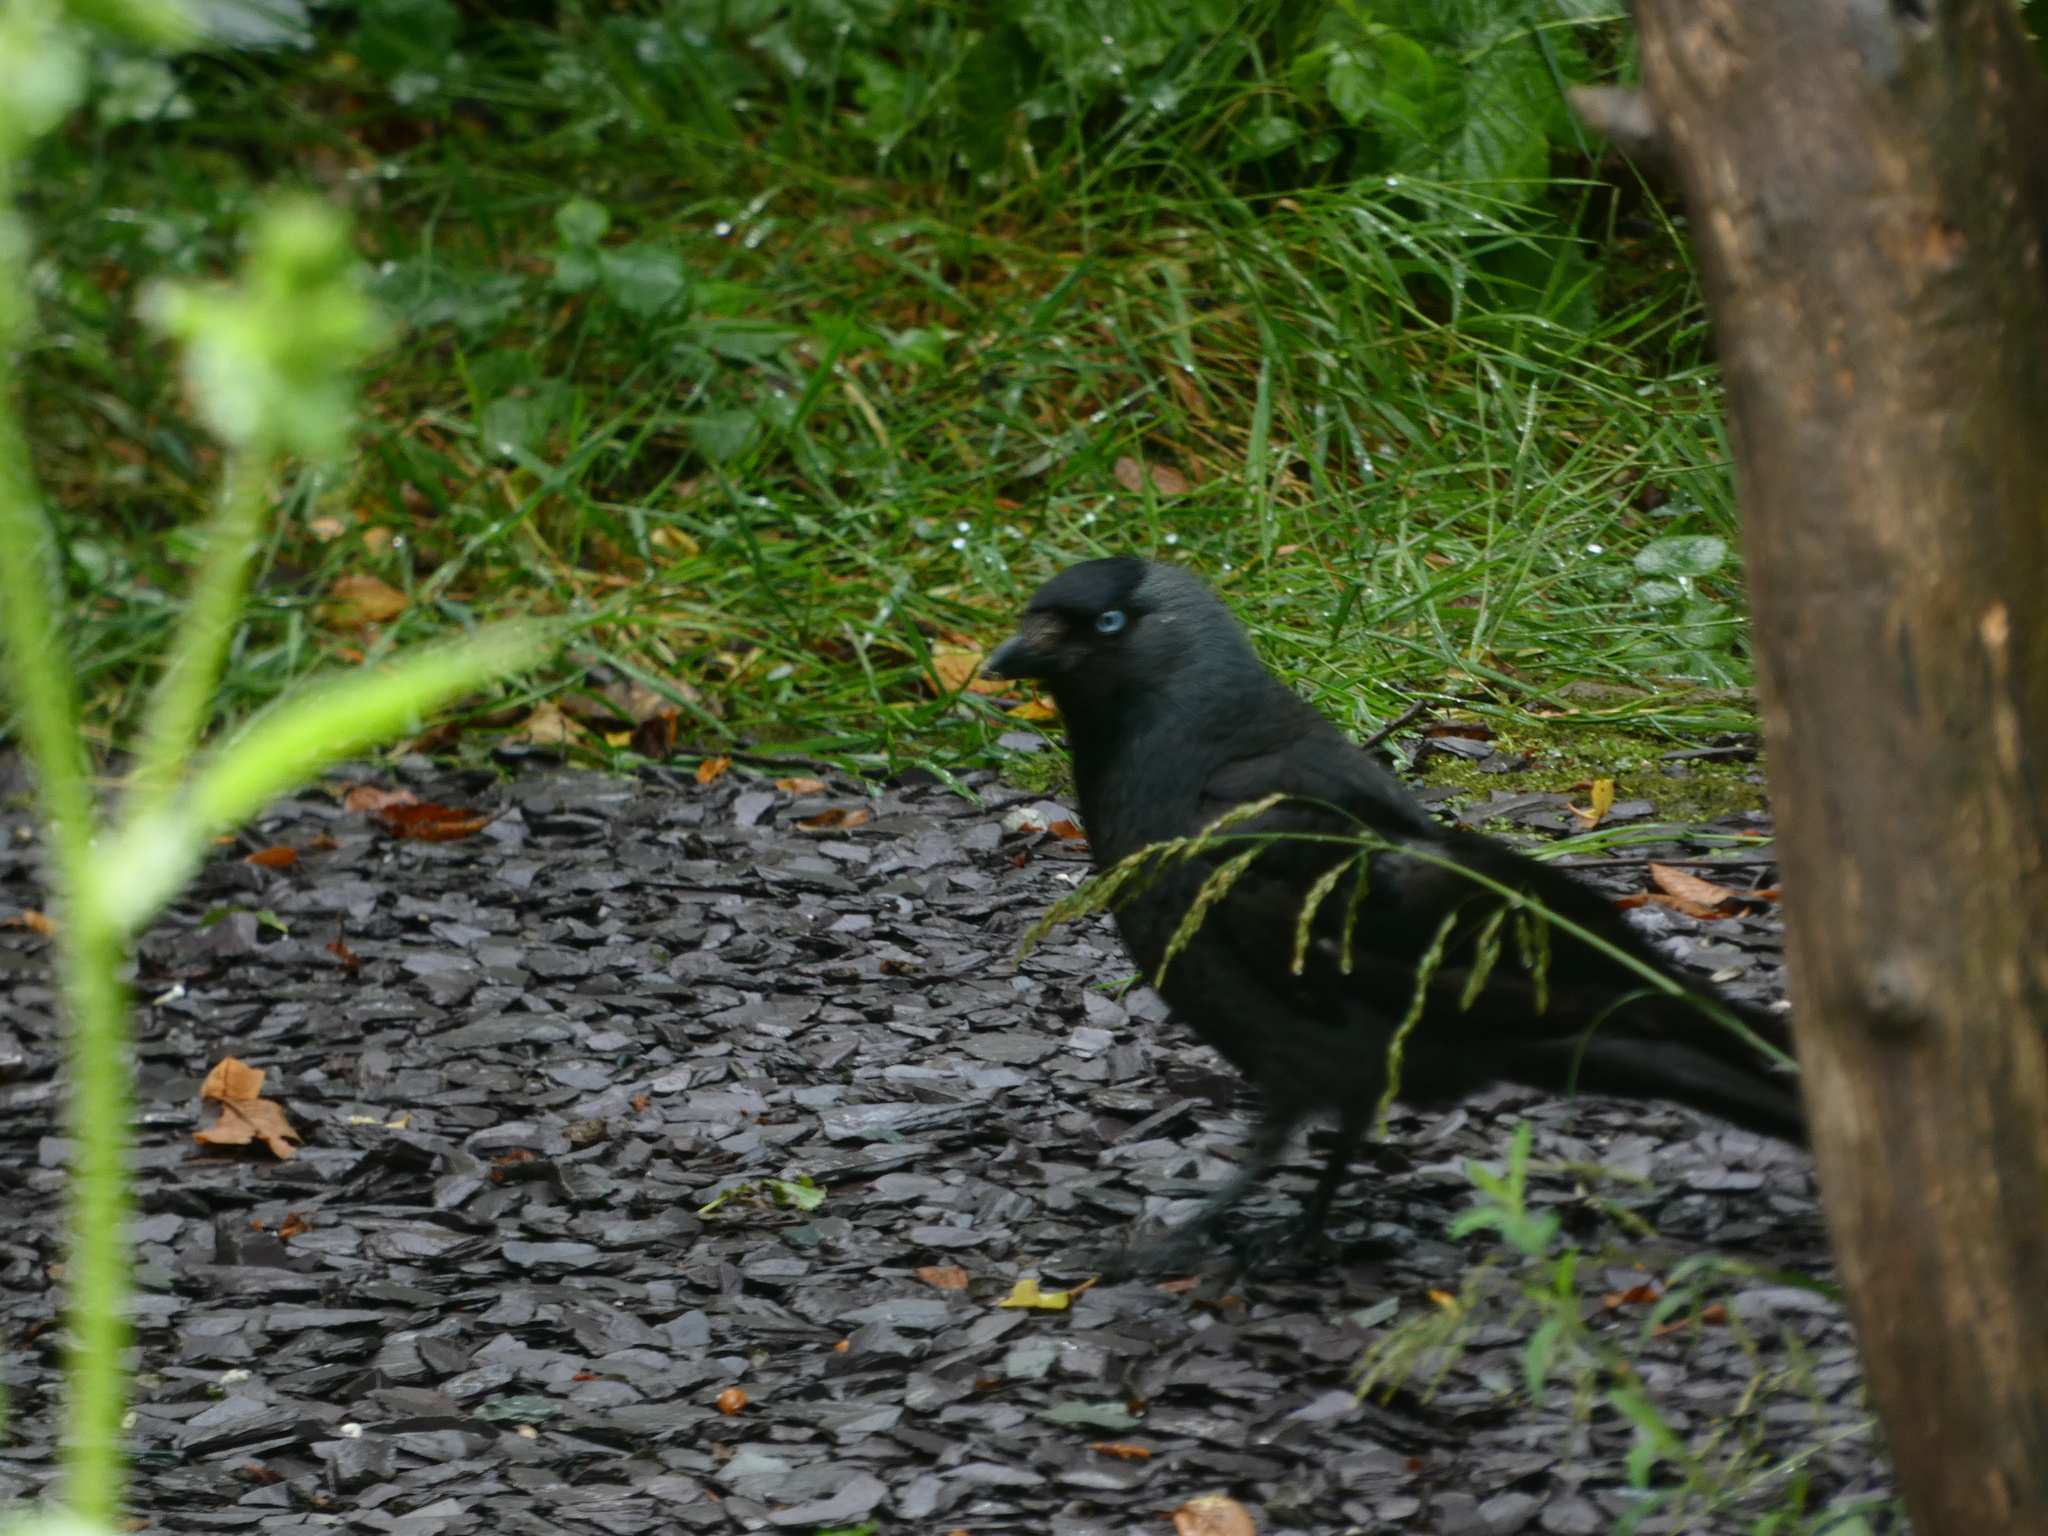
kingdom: Animalia
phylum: Chordata
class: Aves
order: Passeriformes
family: Corvidae
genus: Coloeus
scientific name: Coloeus monedula
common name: Western jackdaw
